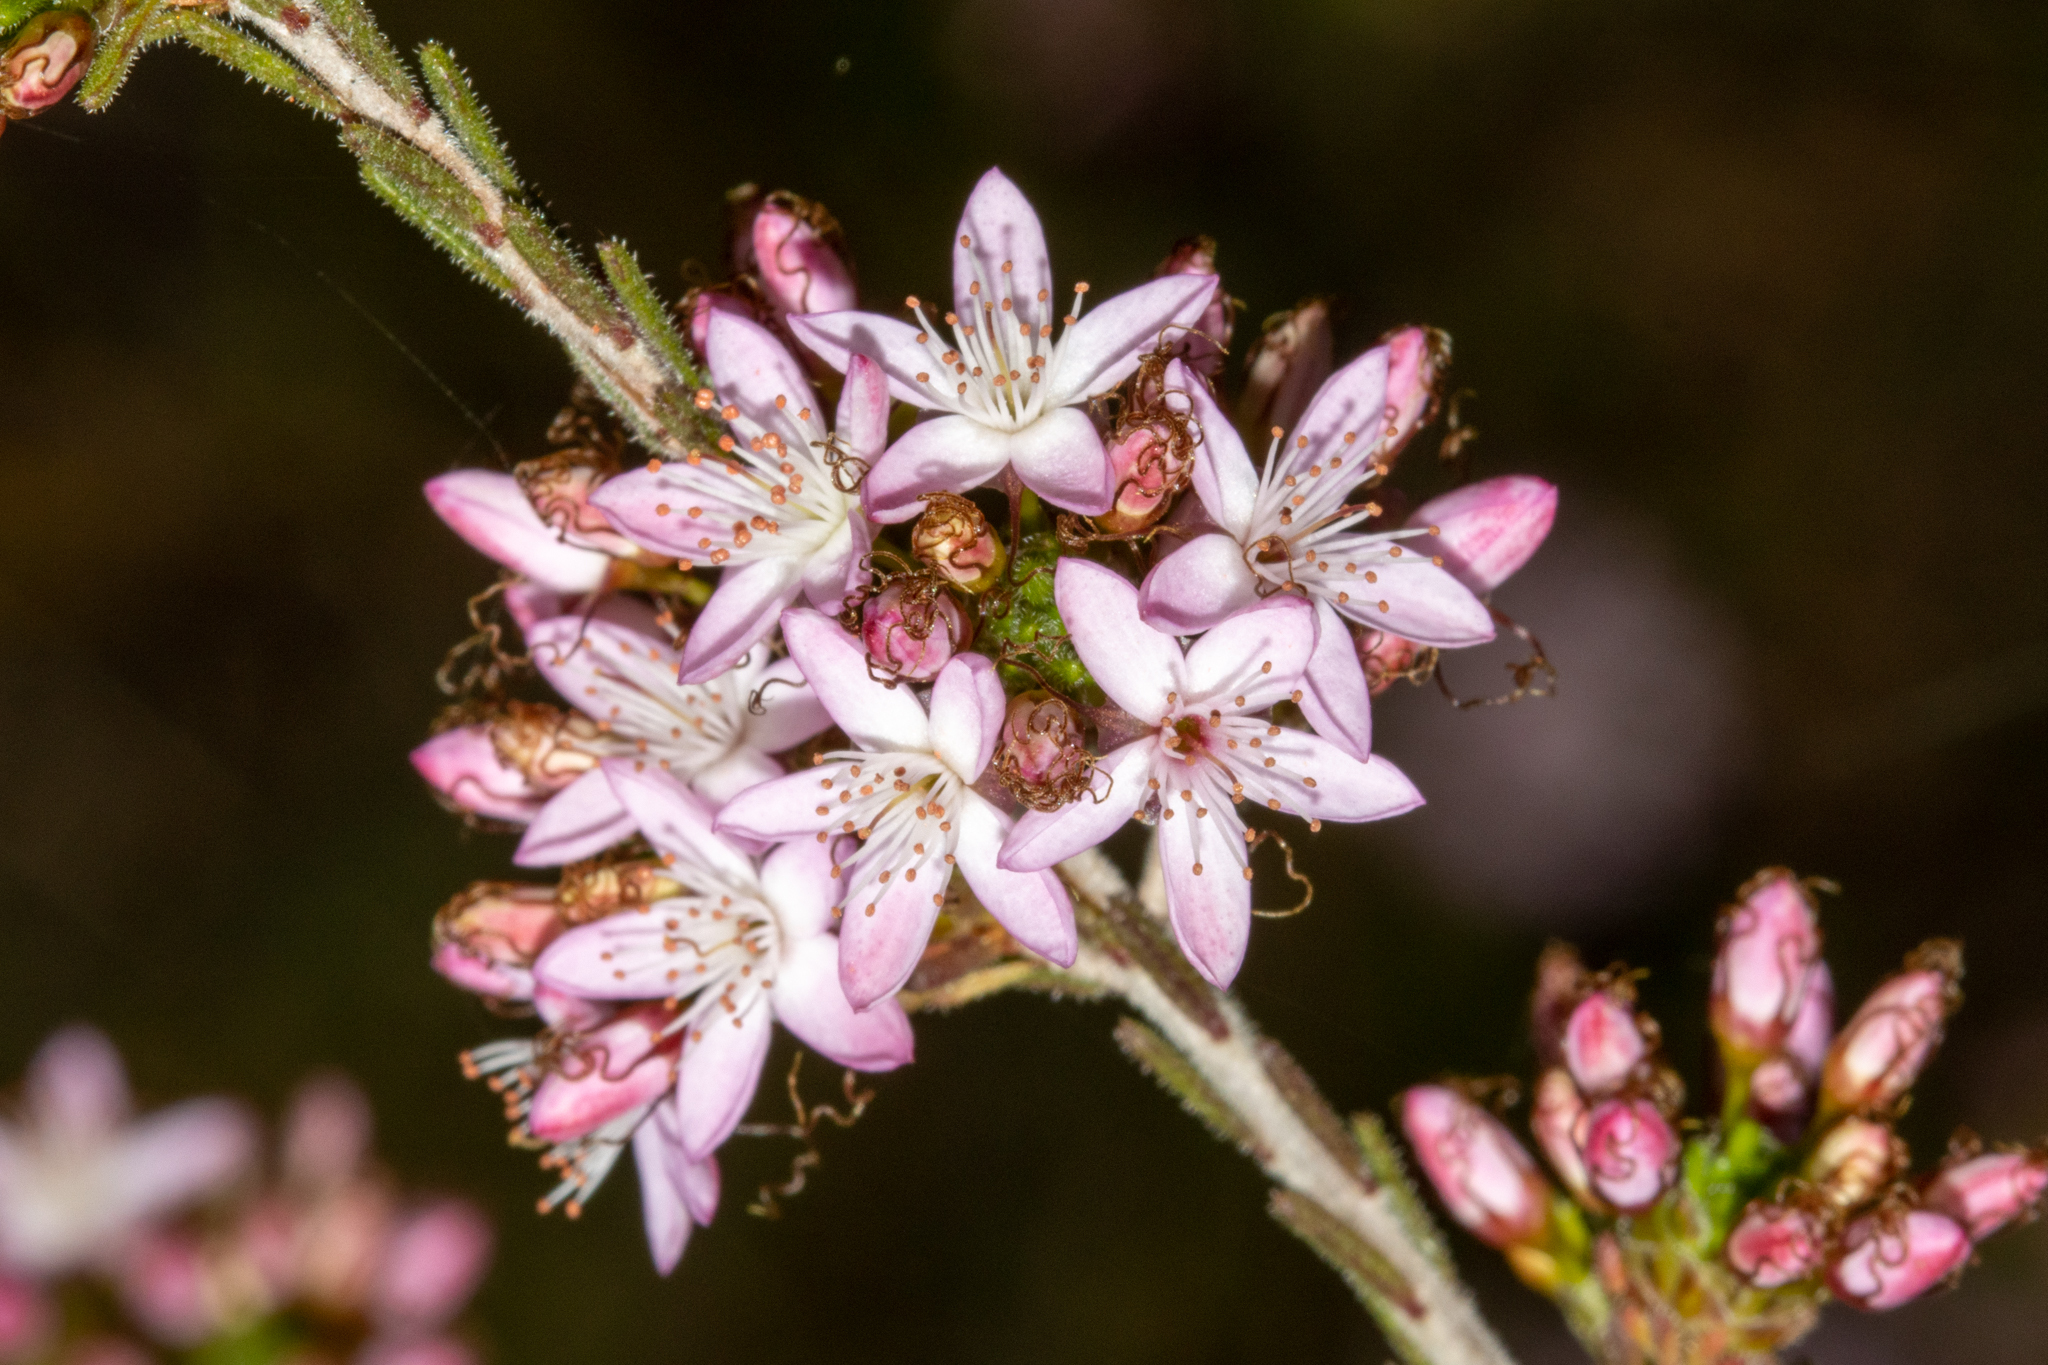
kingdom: Plantae
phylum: Tracheophyta
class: Magnoliopsida
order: Myrtales
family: Myrtaceae
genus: Calytrix
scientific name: Calytrix tetragona
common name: Common fringe myrtle
